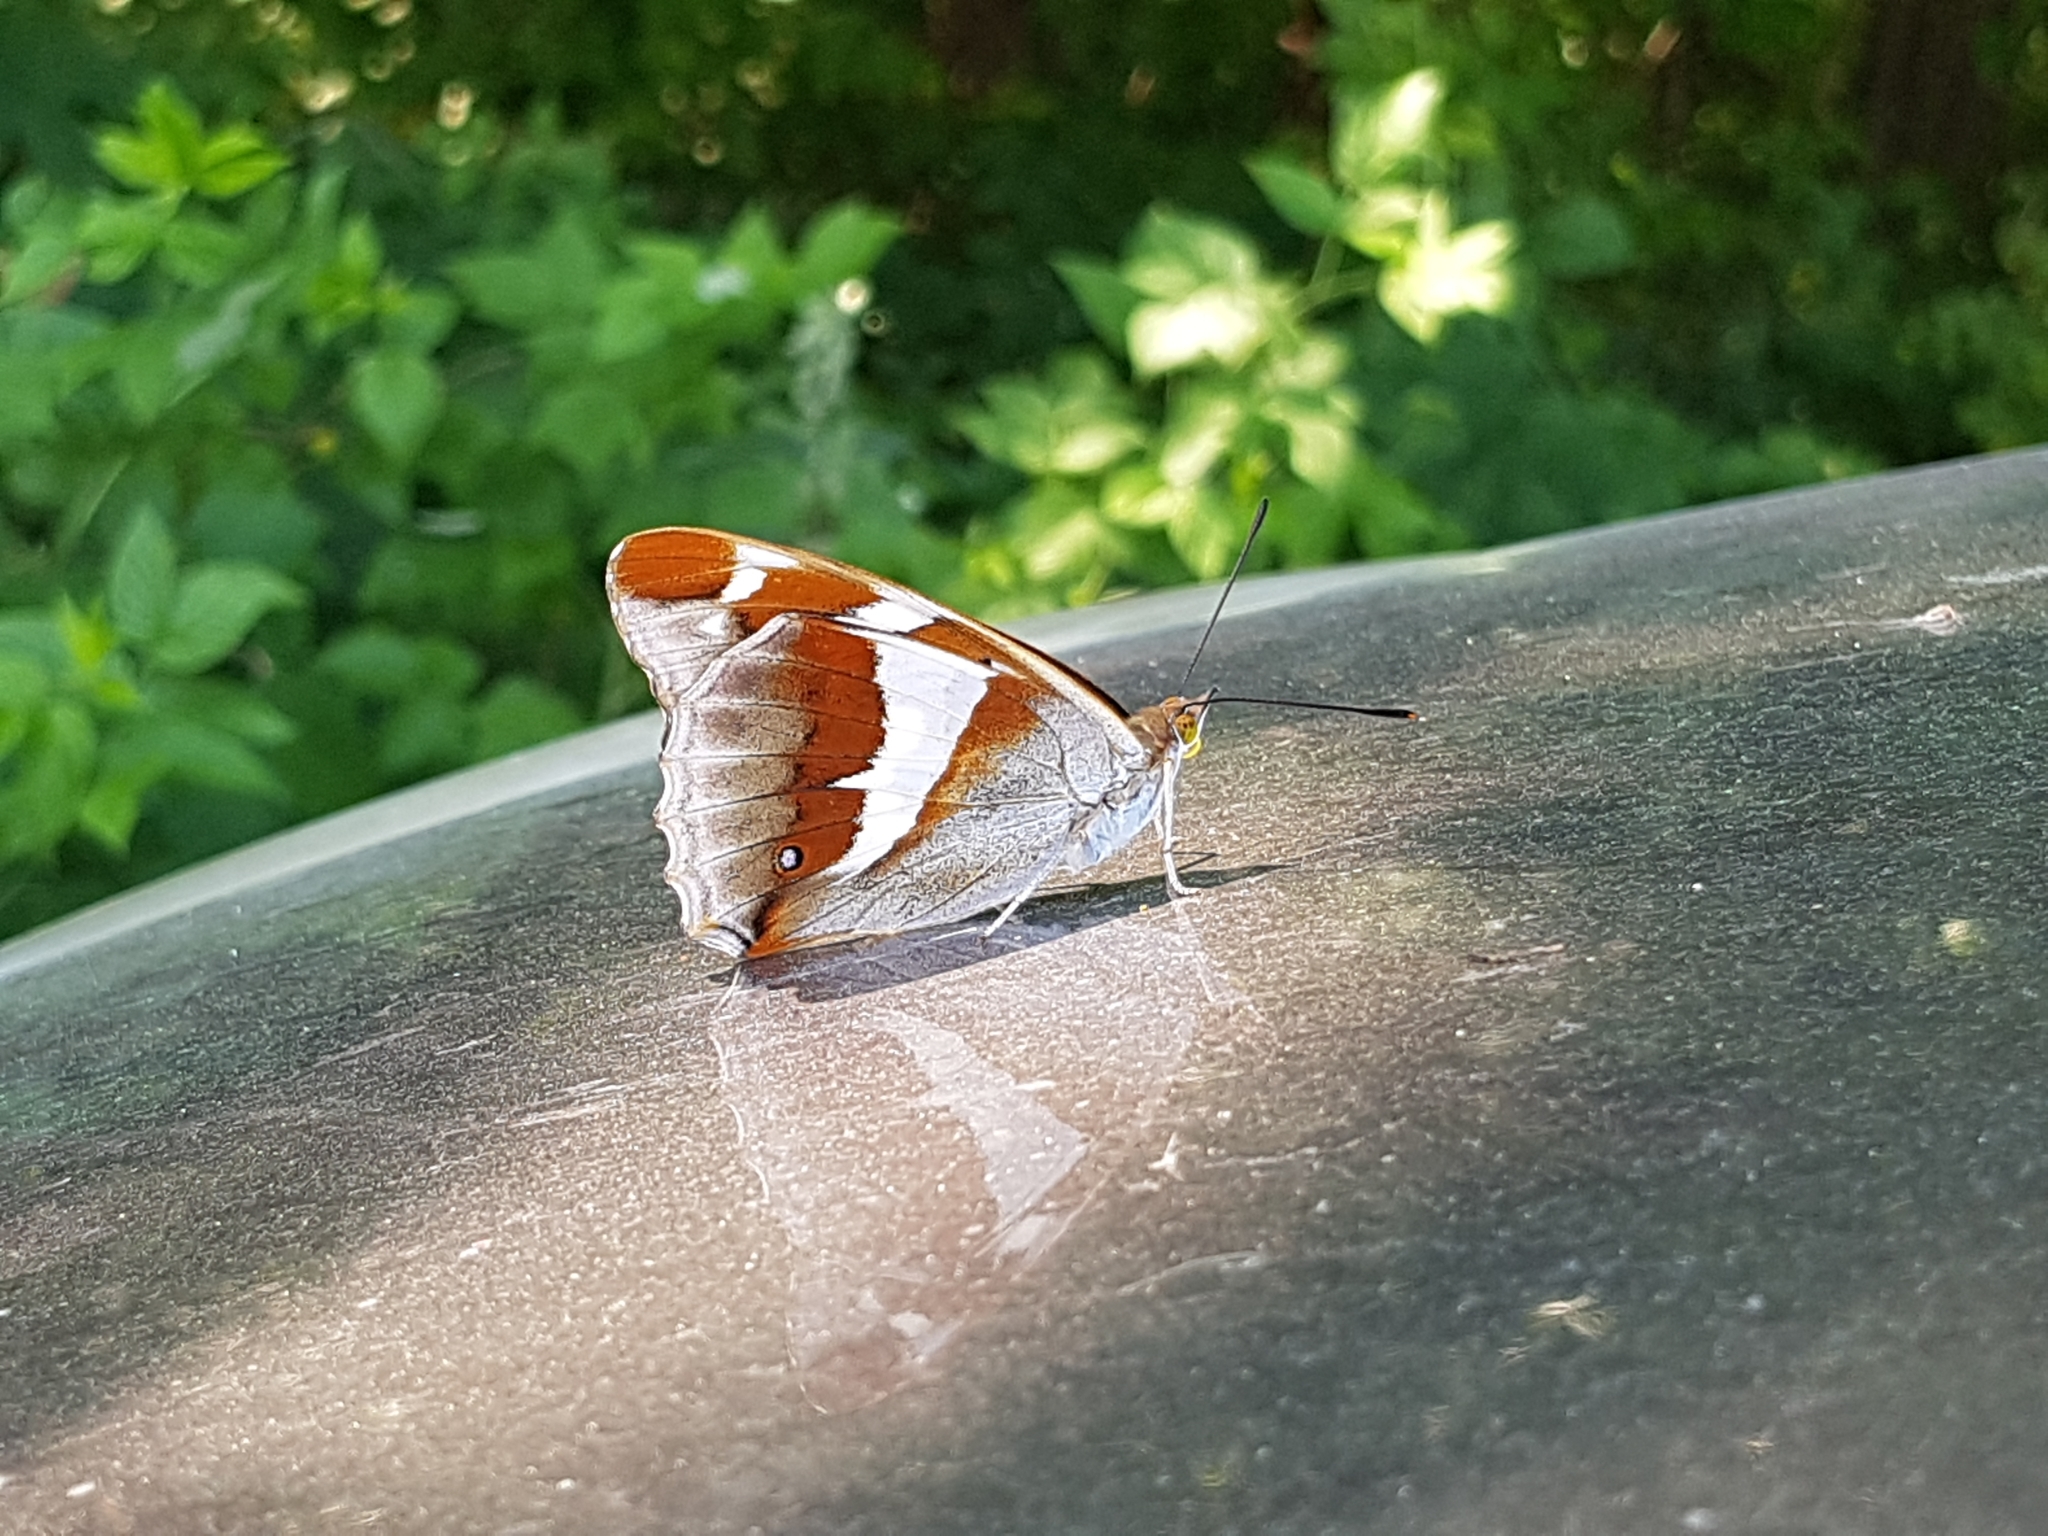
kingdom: Animalia
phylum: Arthropoda
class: Insecta
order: Lepidoptera
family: Nymphalidae
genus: Apatura
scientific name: Apatura iris
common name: Purple emperor
